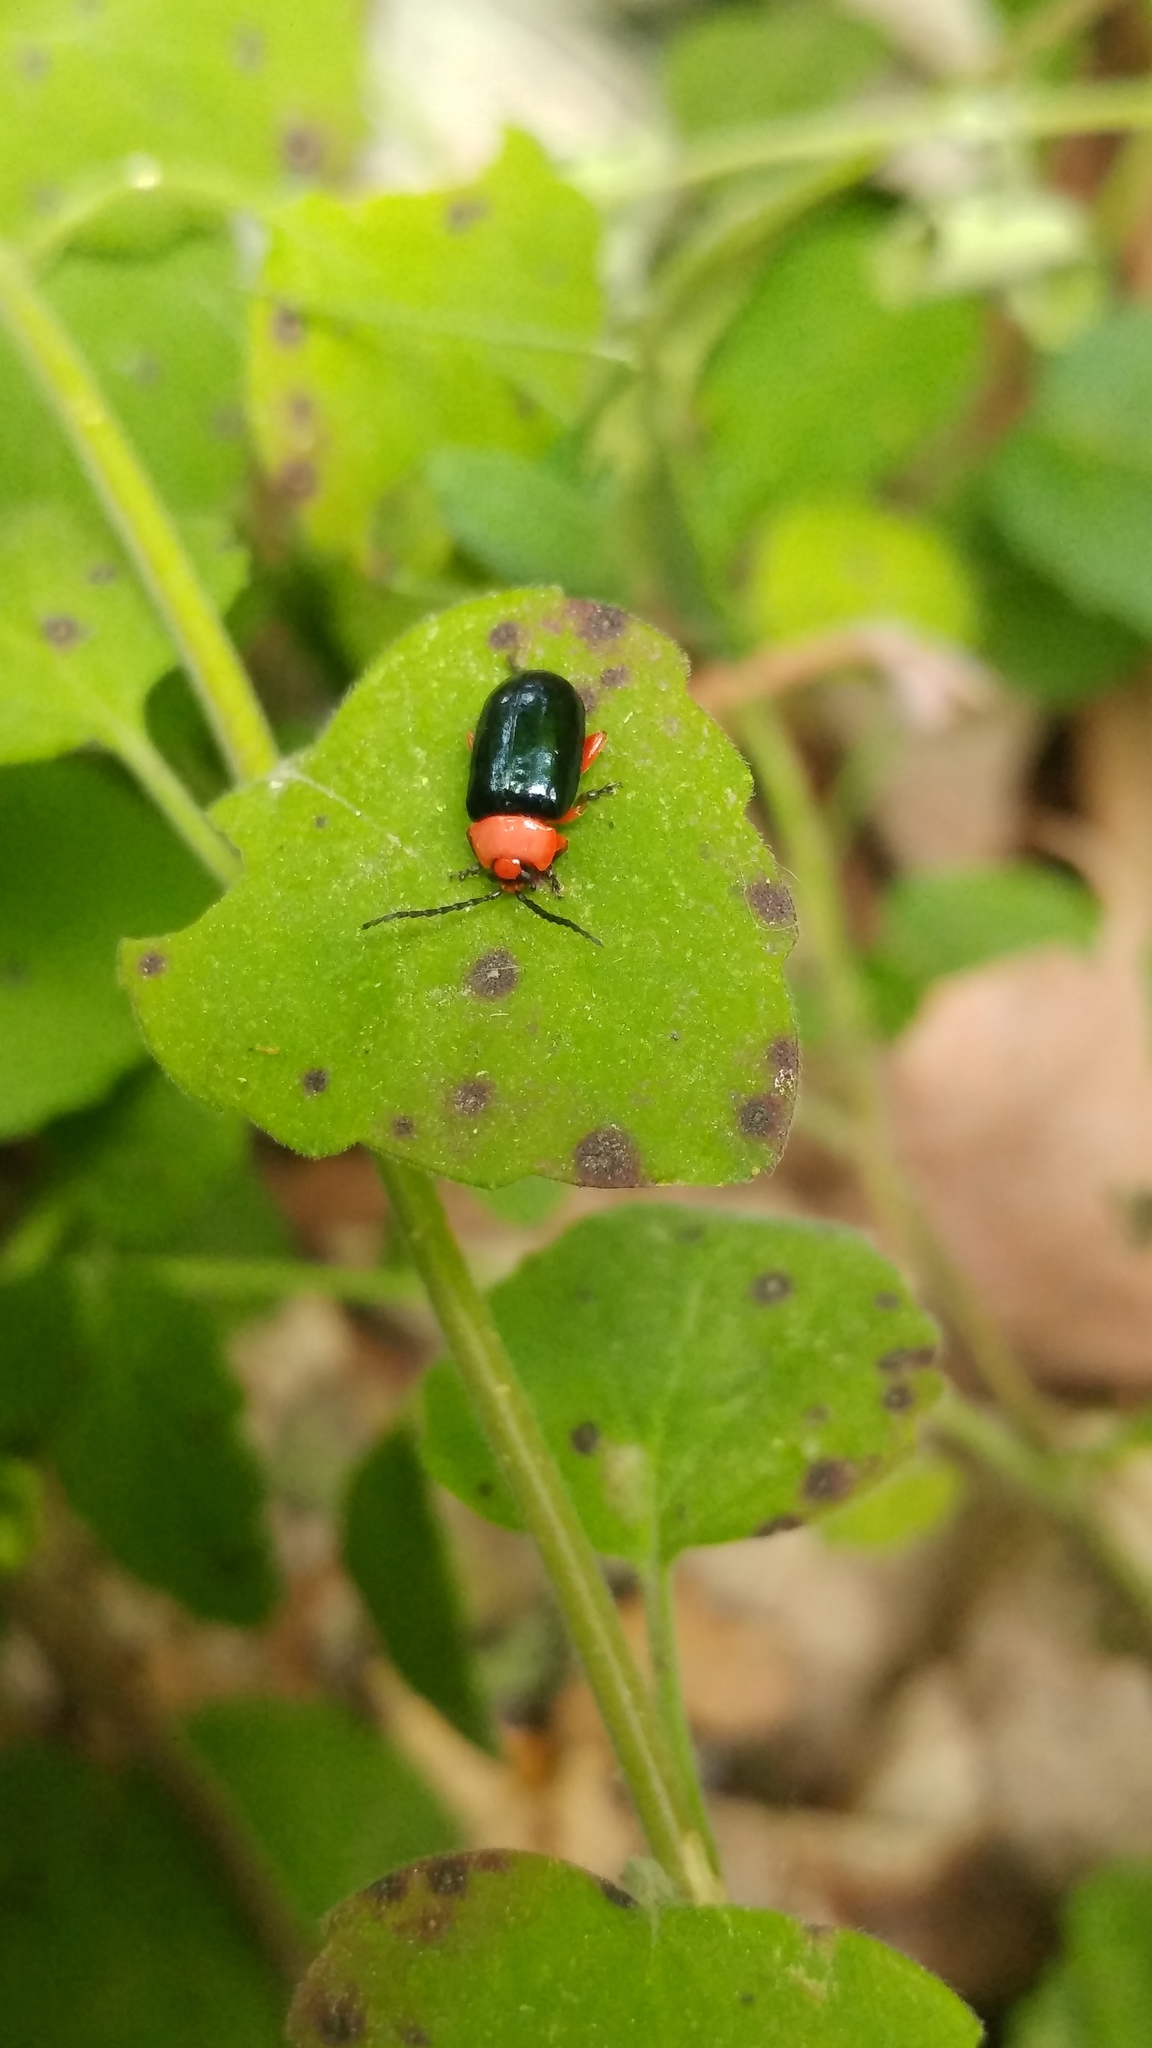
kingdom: Animalia
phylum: Arthropoda
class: Insecta
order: Coleoptera
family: Chrysomelidae
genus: Asphaera
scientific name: Asphaera lustrans
